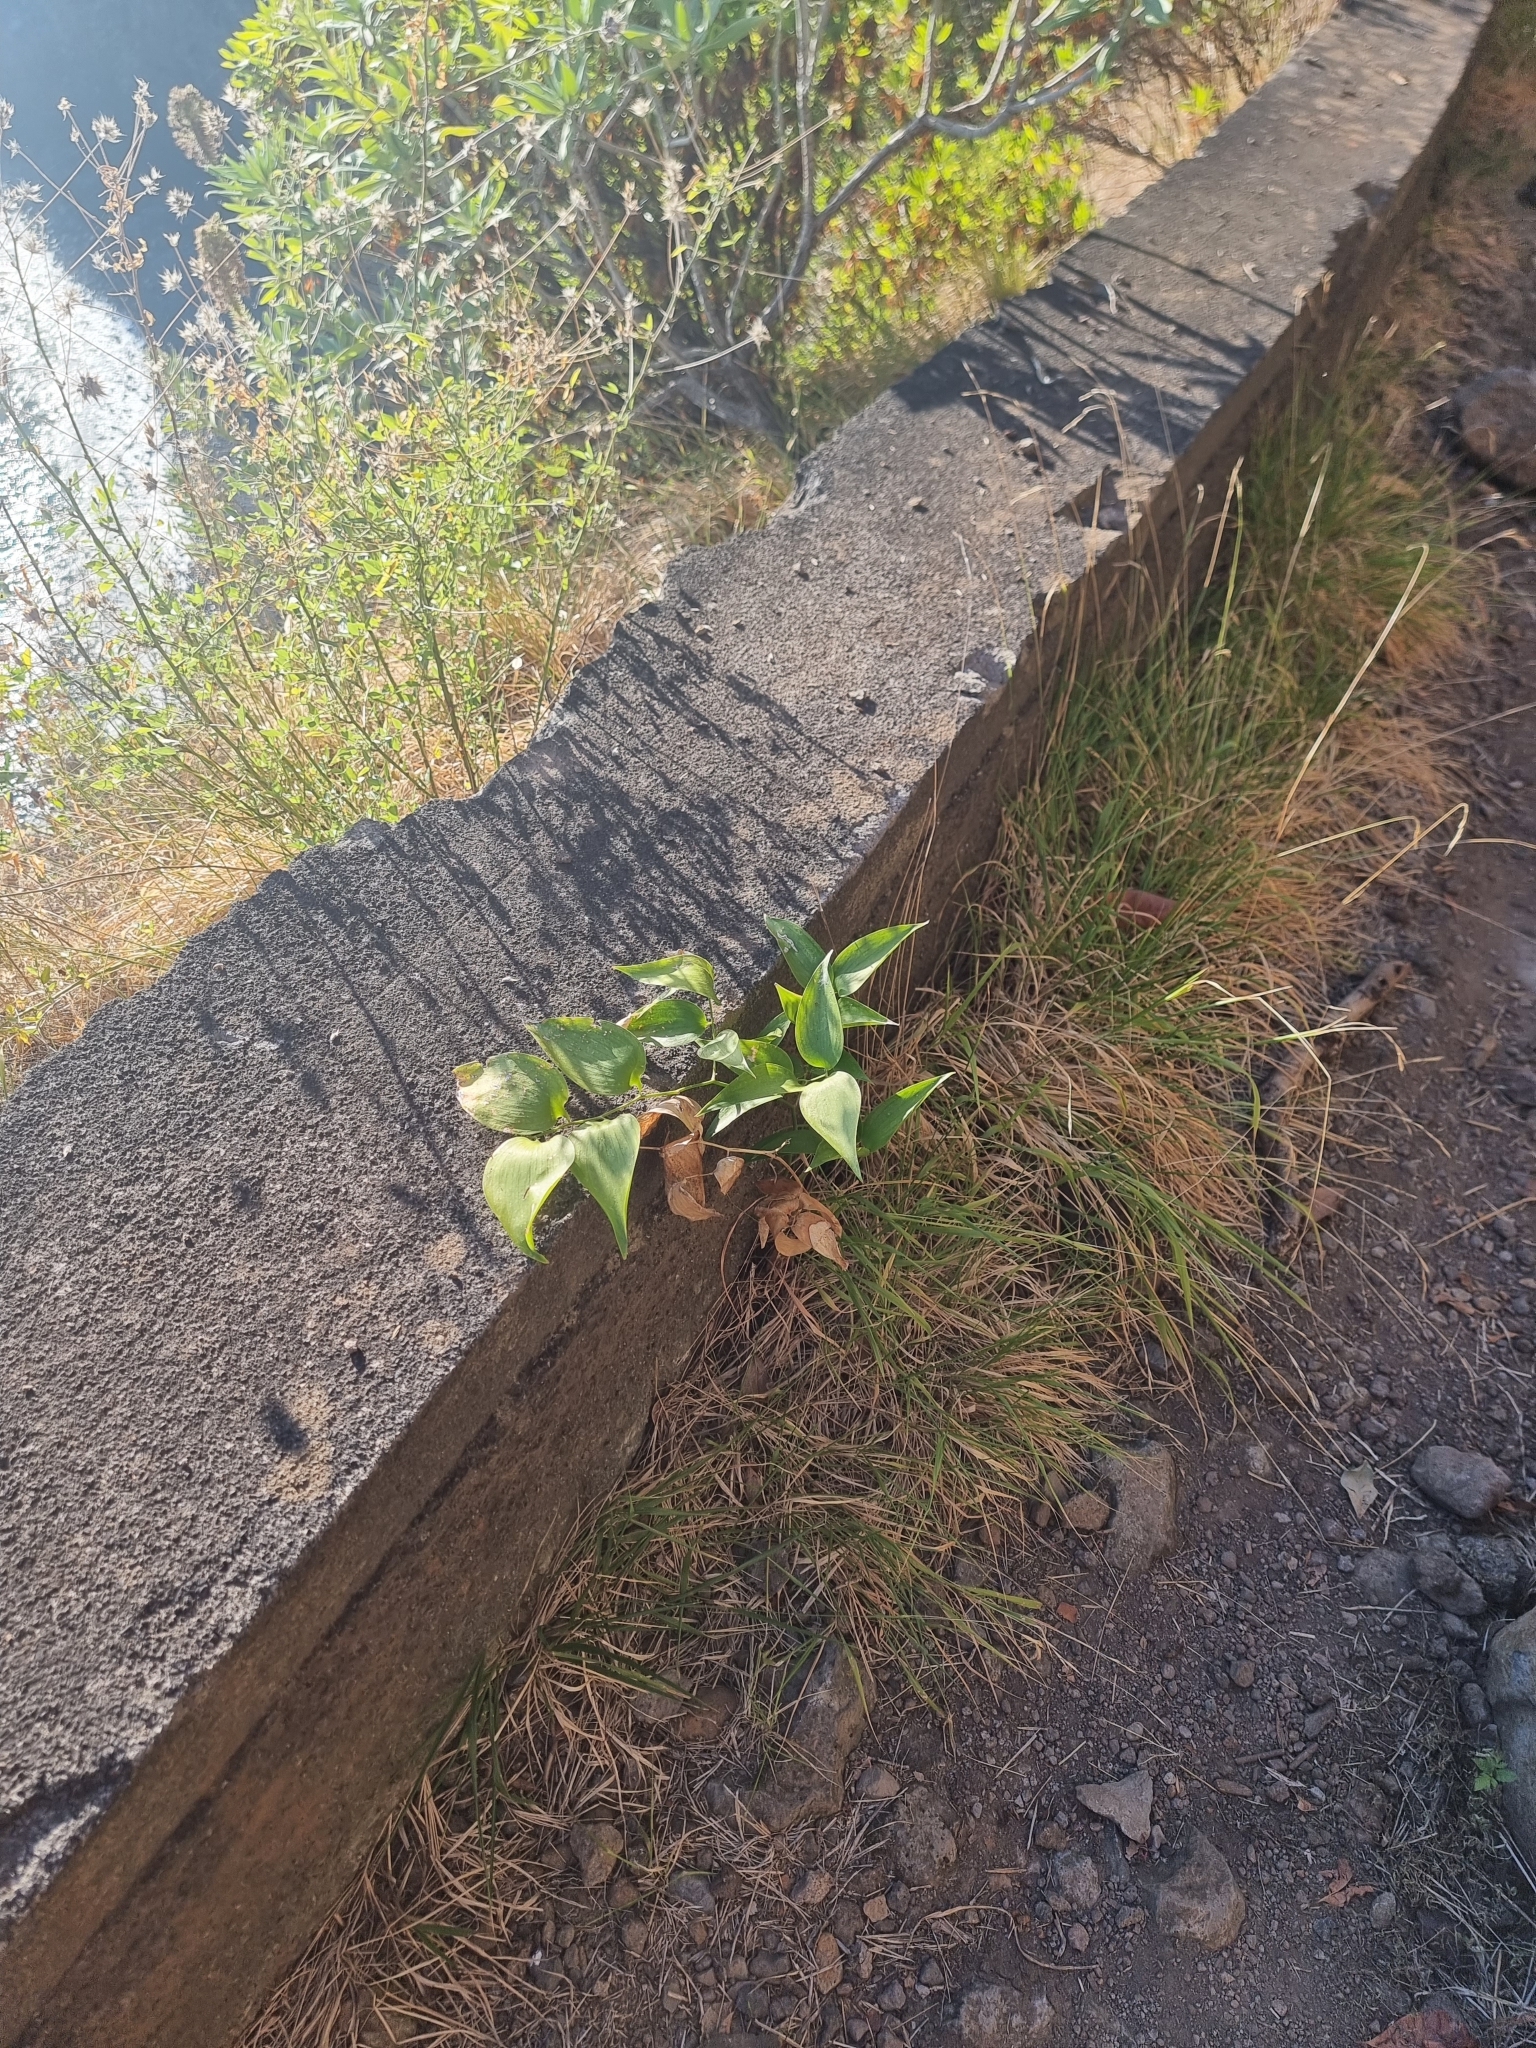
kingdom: Plantae
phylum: Tracheophyta
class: Liliopsida
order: Asparagales
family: Asparagaceae
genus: Semele
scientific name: Semele androgyna
